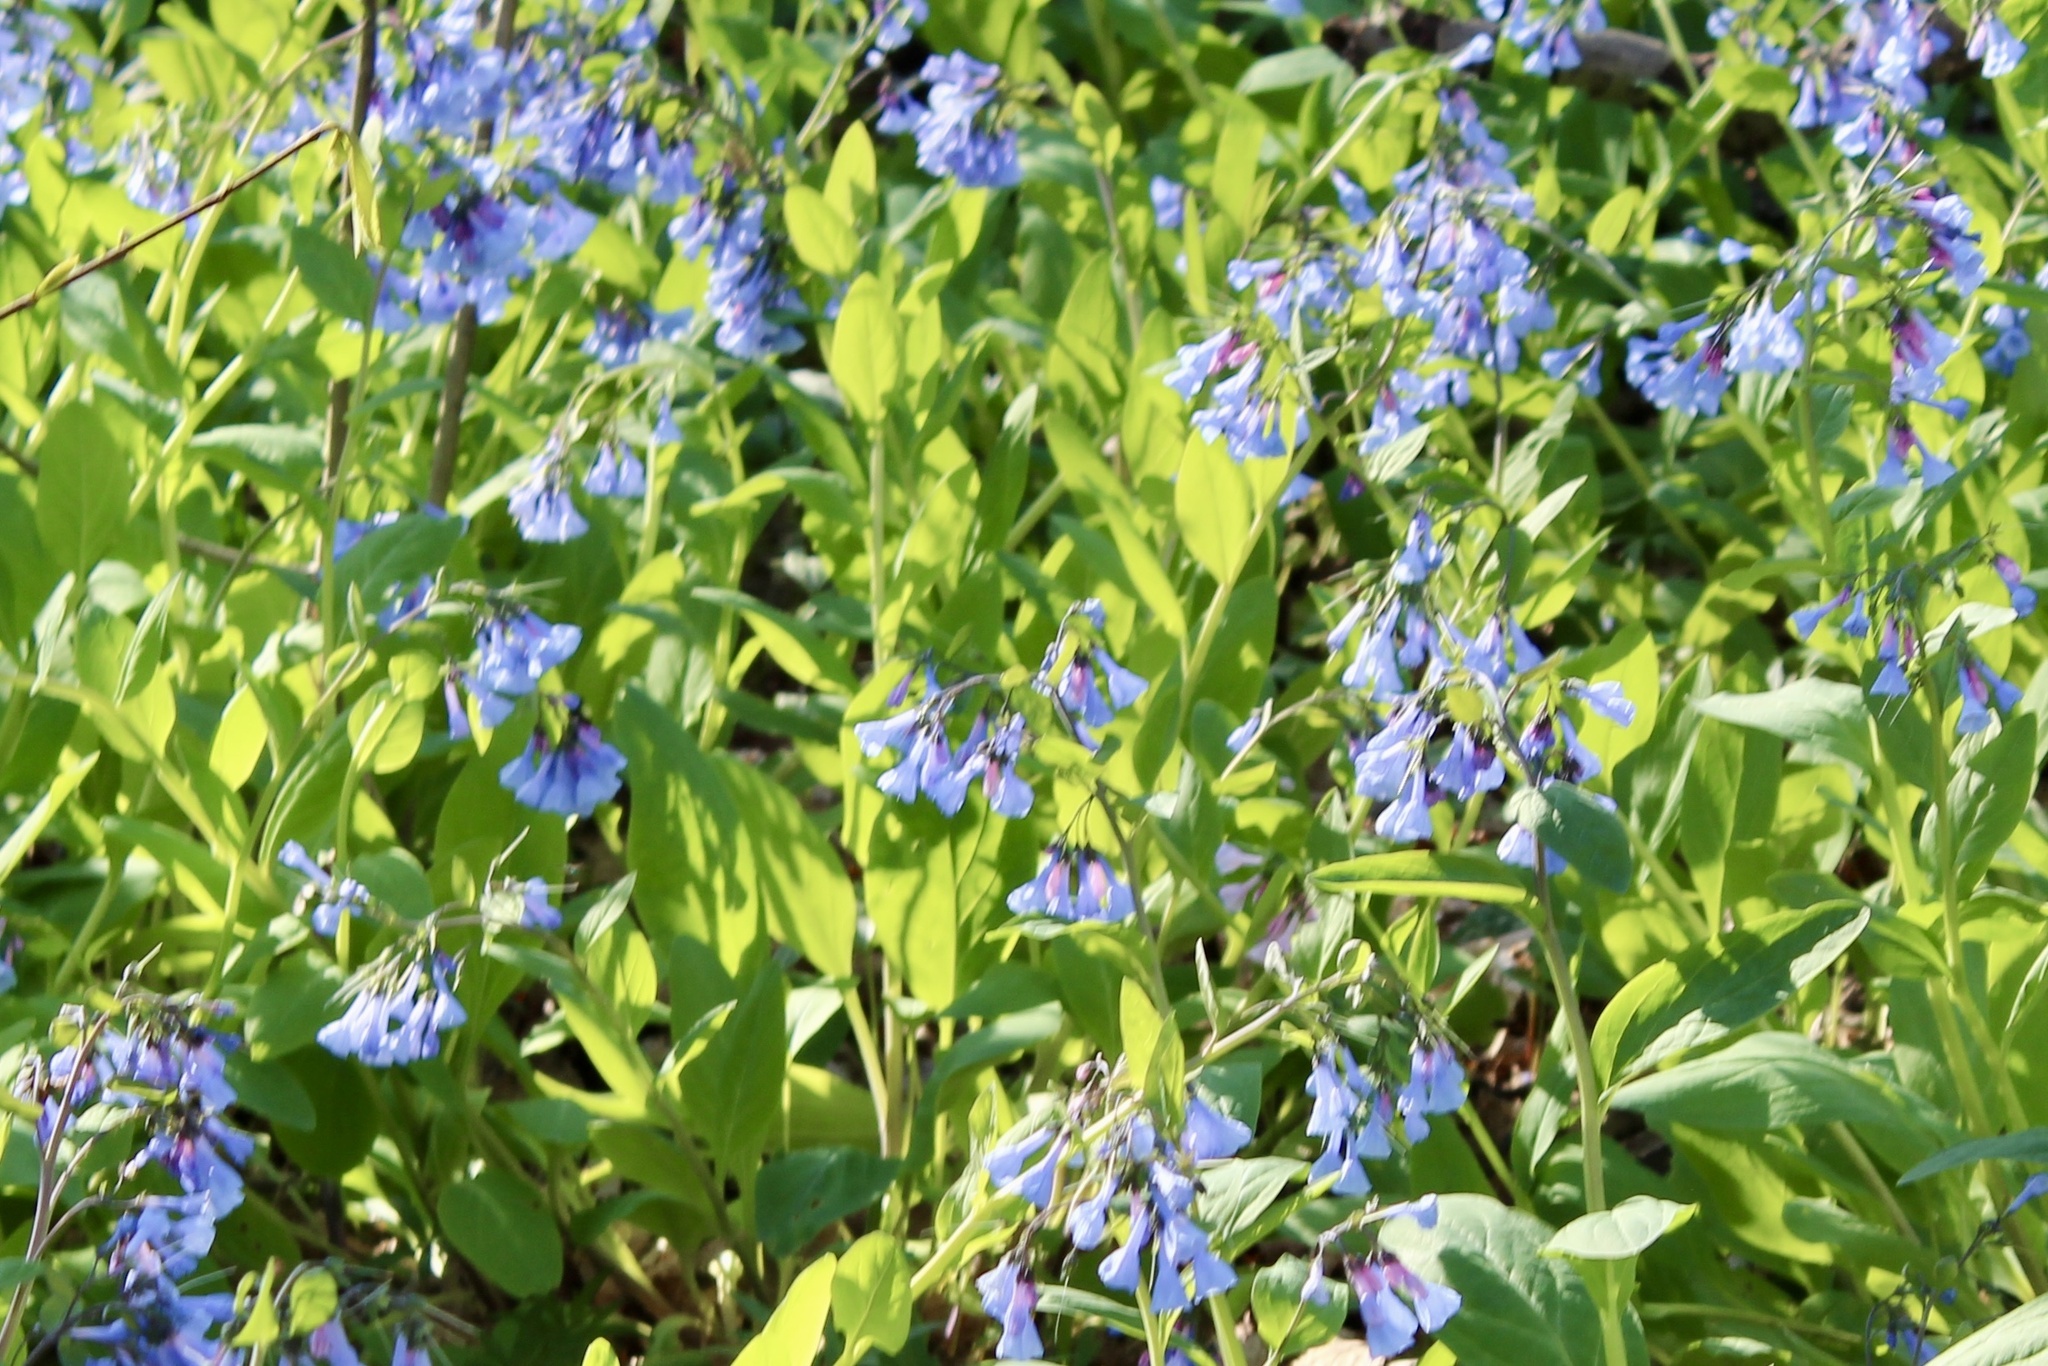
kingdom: Plantae
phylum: Tracheophyta
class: Magnoliopsida
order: Boraginales
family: Boraginaceae
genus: Mertensia
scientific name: Mertensia virginica
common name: Virginia bluebells
